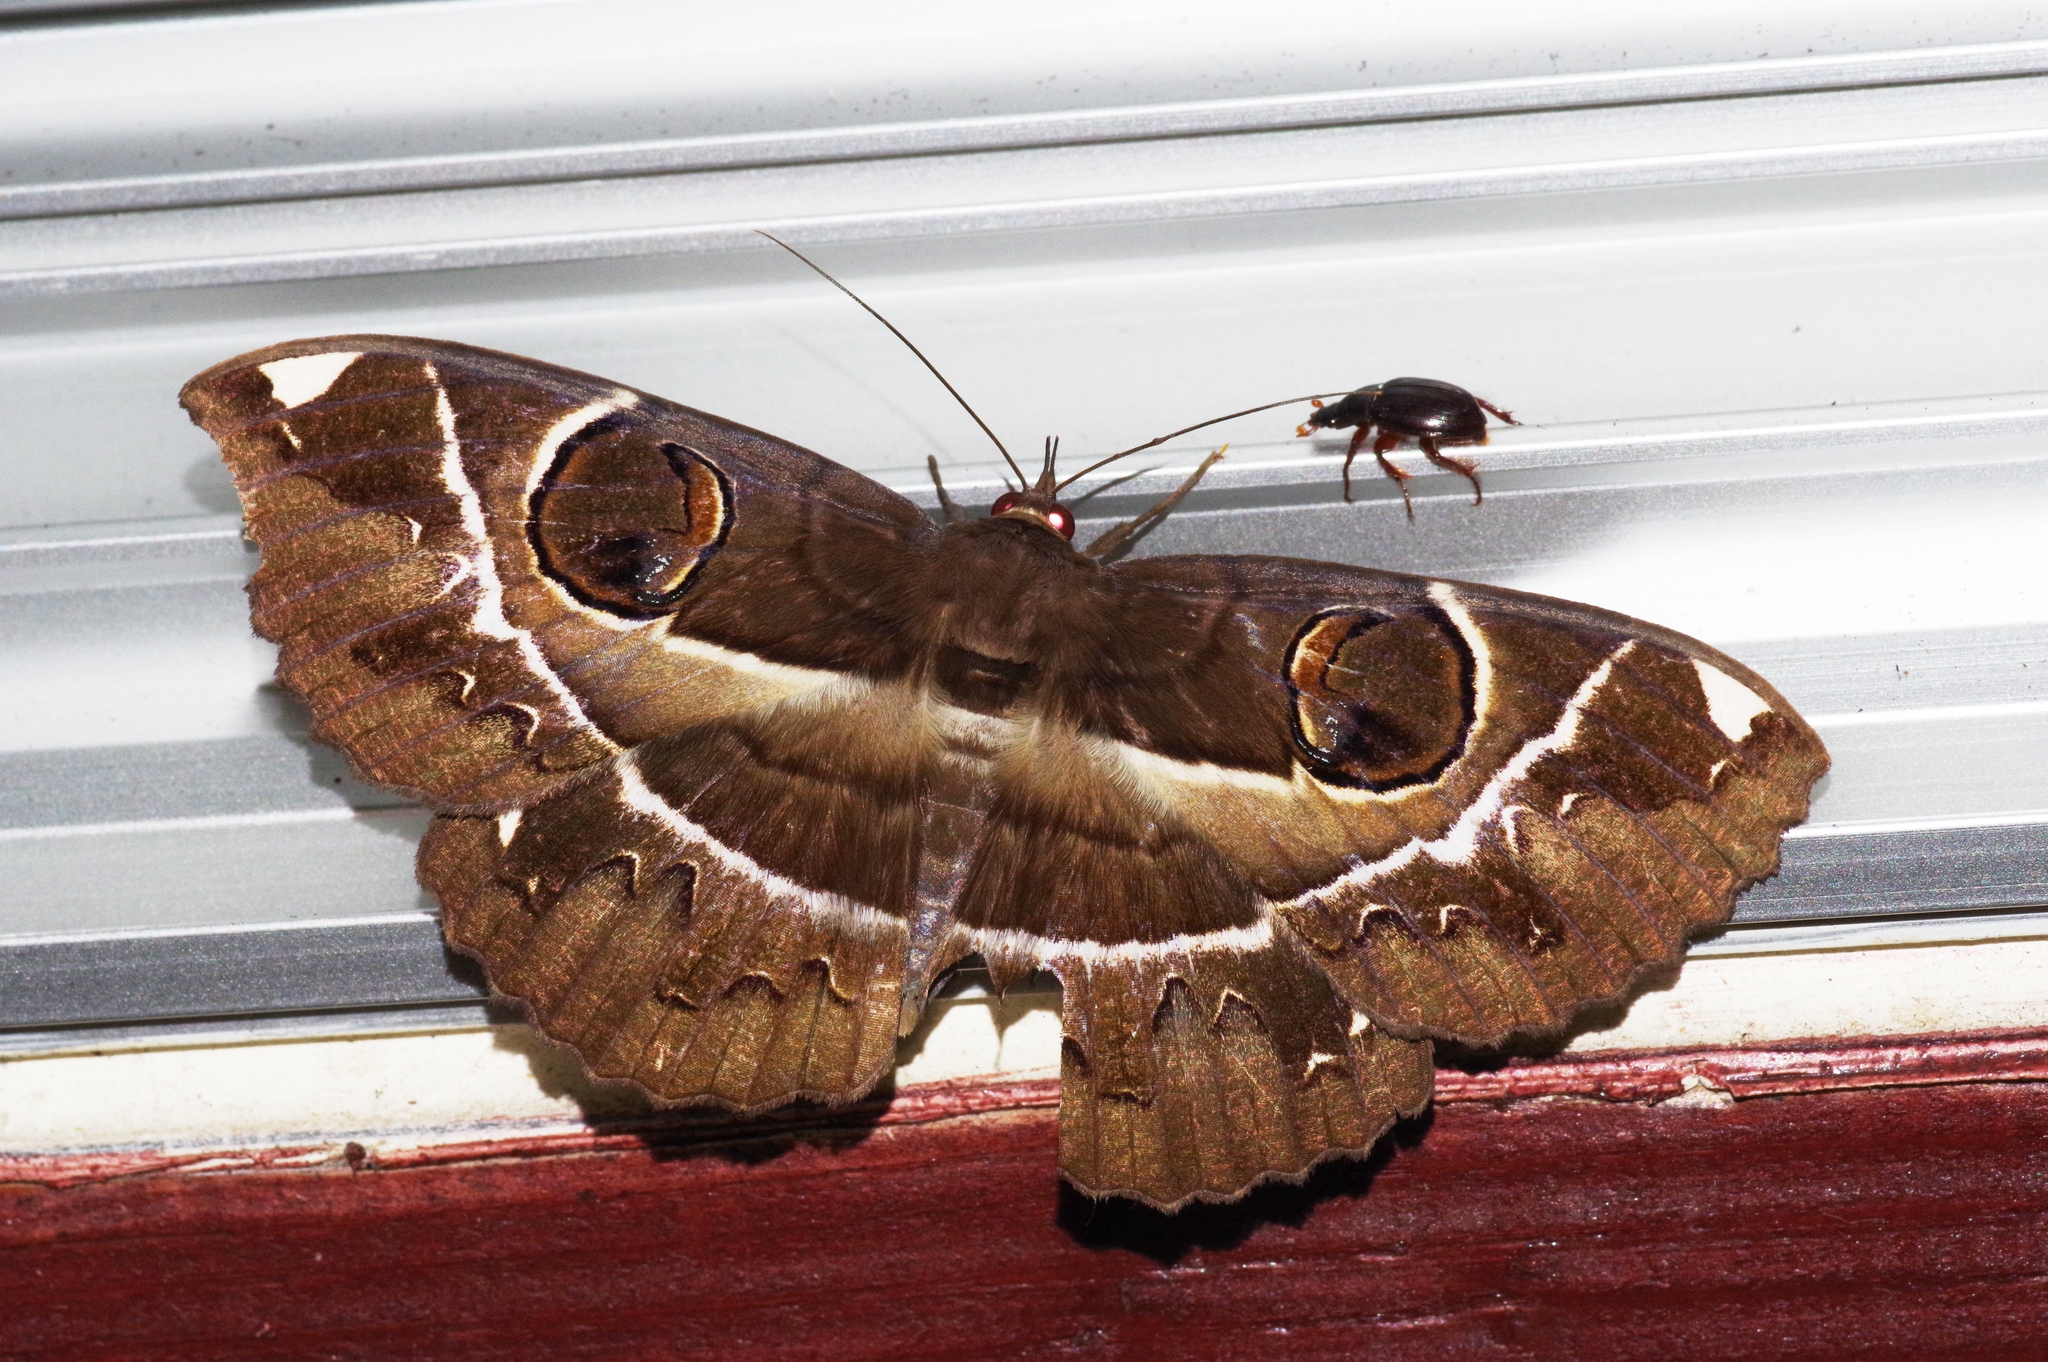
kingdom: Animalia
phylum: Arthropoda
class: Insecta
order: Lepidoptera
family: Erebidae
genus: Erebus
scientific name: Erebus ephesperis
